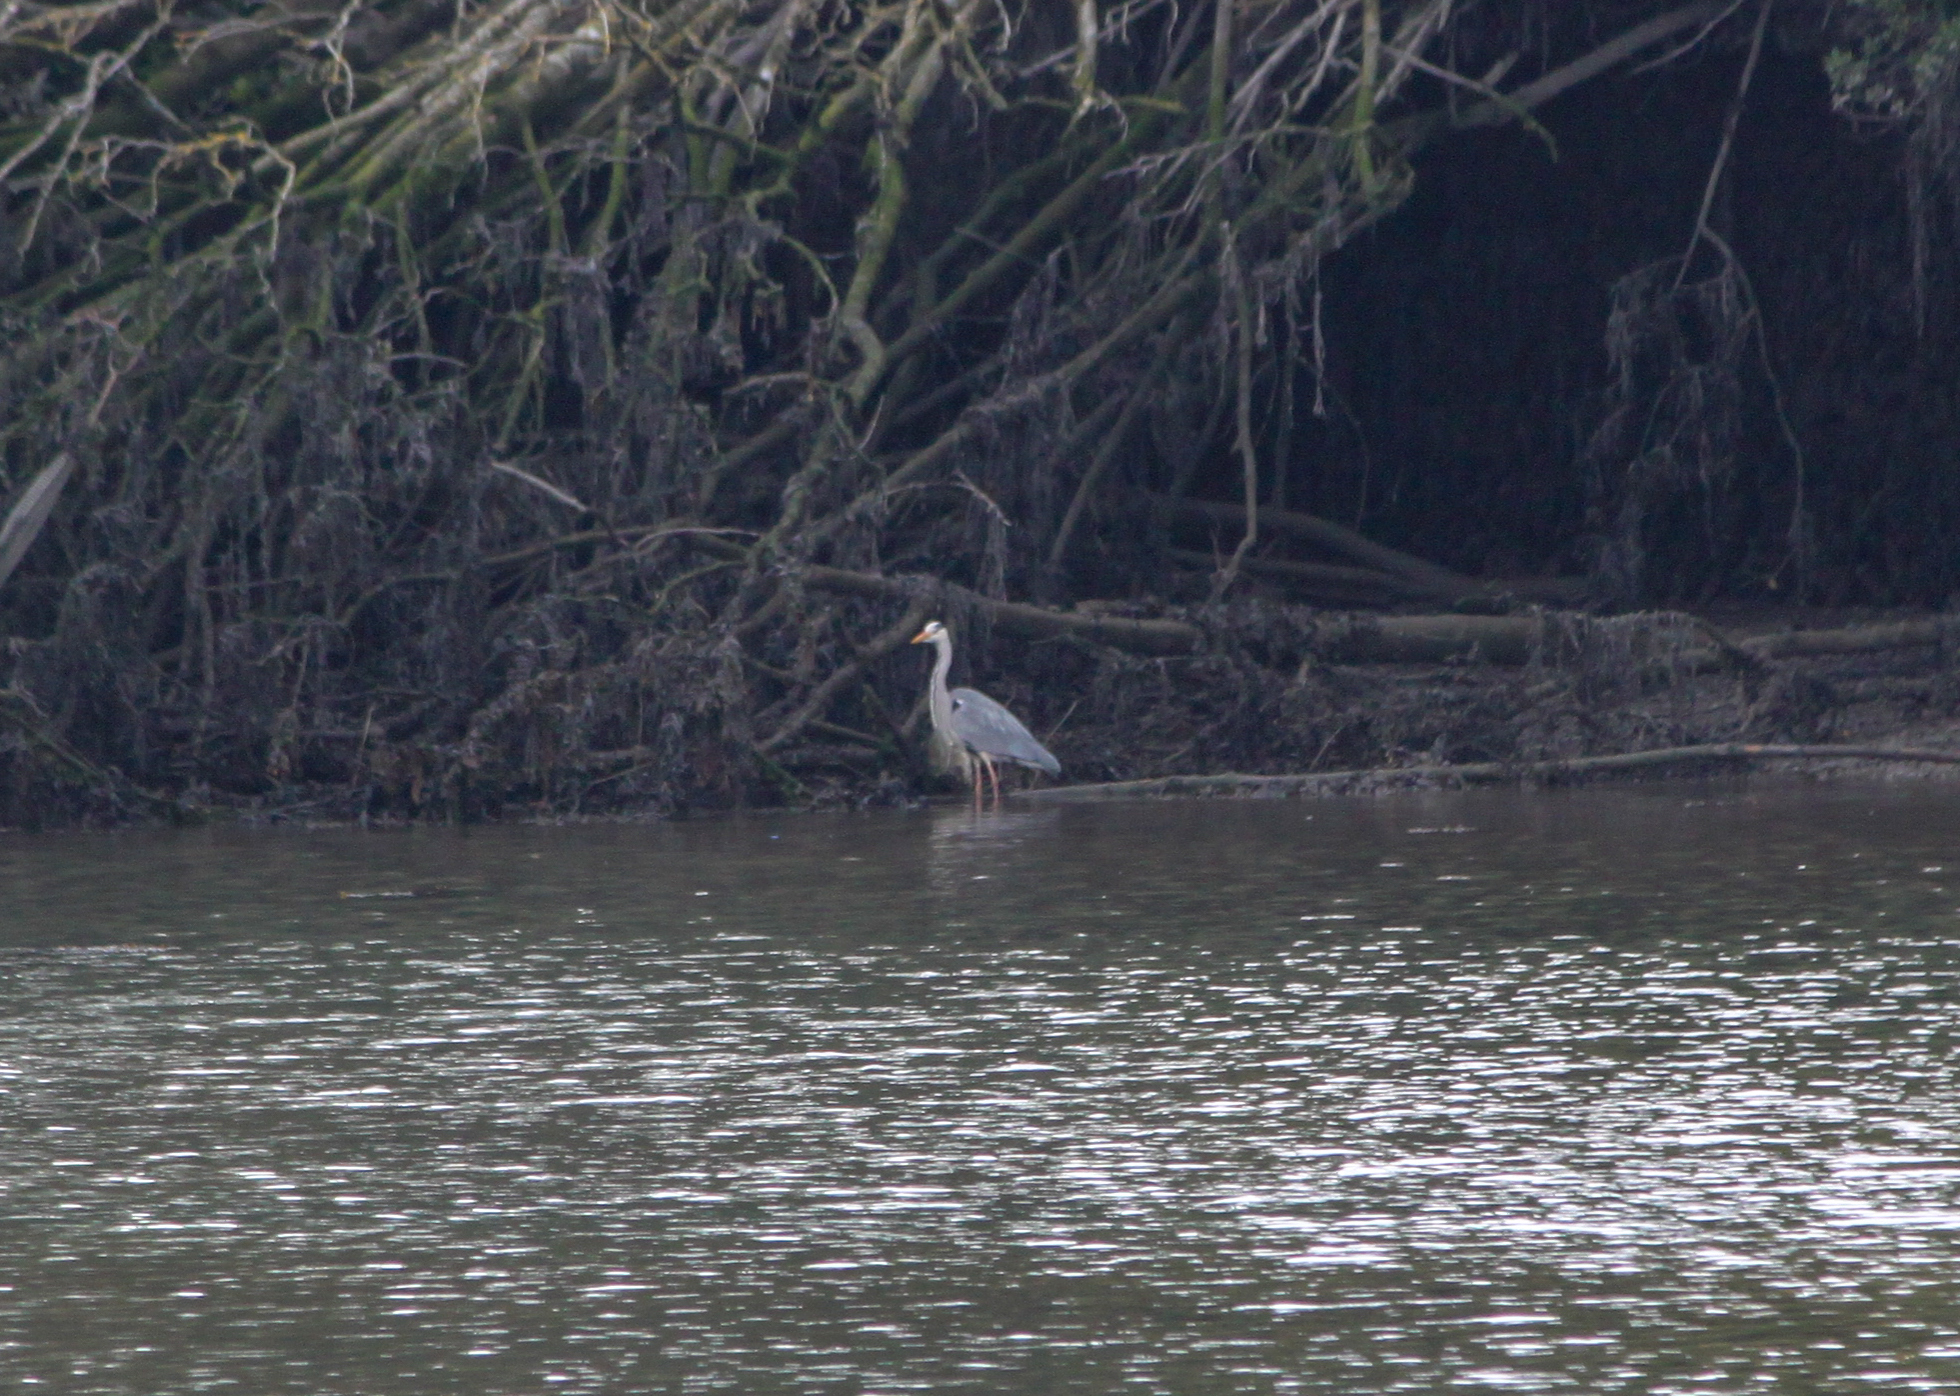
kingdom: Animalia
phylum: Chordata
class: Aves
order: Pelecaniformes
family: Ardeidae
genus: Ardea
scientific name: Ardea cinerea
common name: Grey heron
